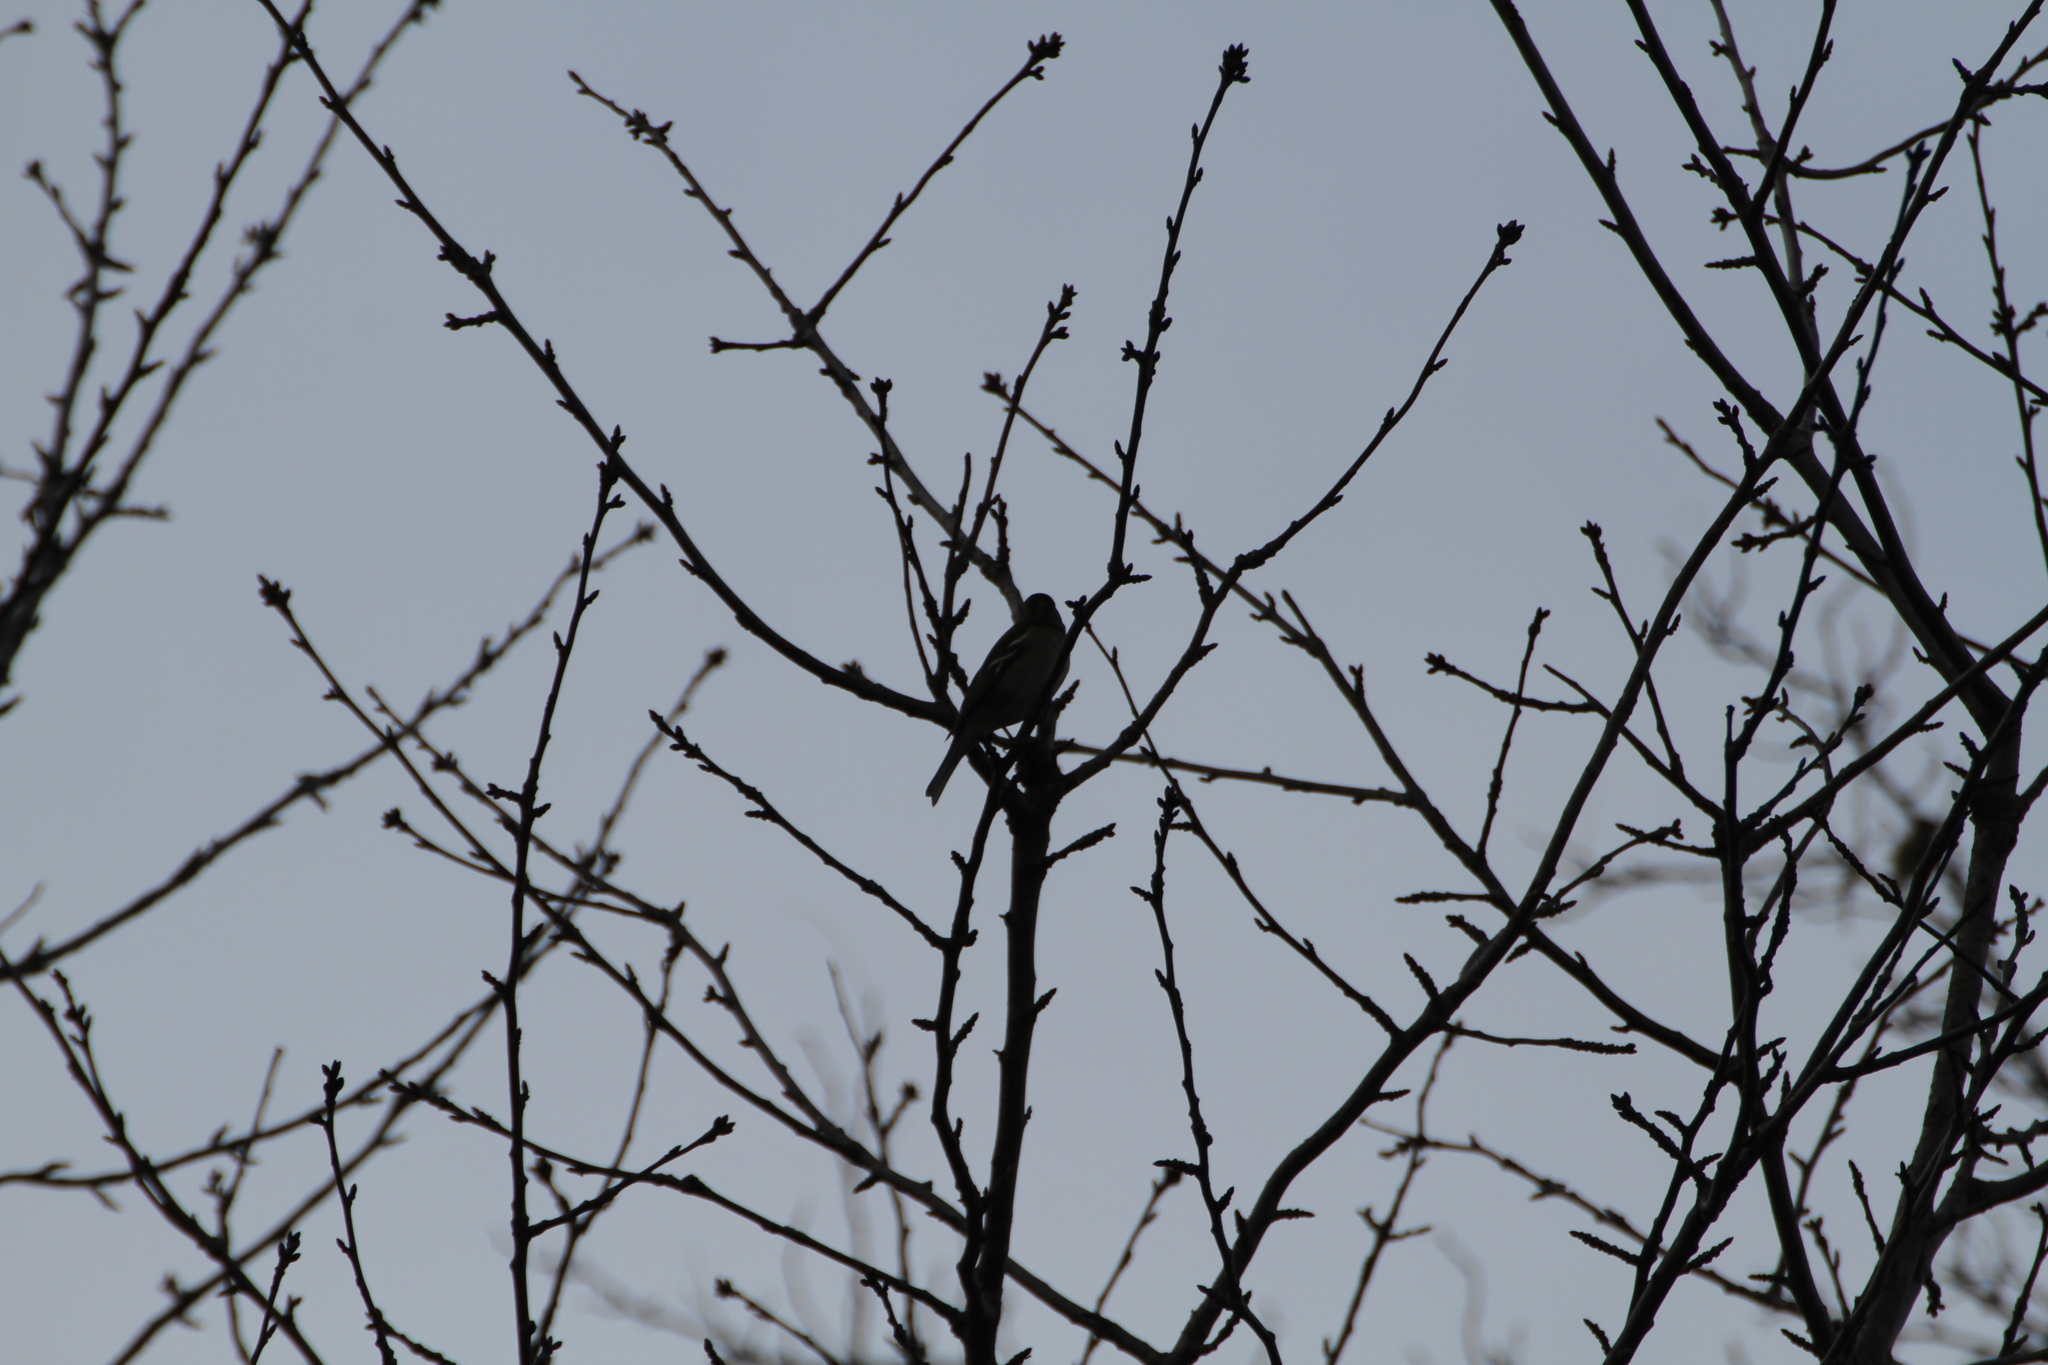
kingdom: Animalia
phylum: Chordata
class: Aves
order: Passeriformes
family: Fringillidae
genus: Fringilla
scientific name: Fringilla coelebs
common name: Common chaffinch
